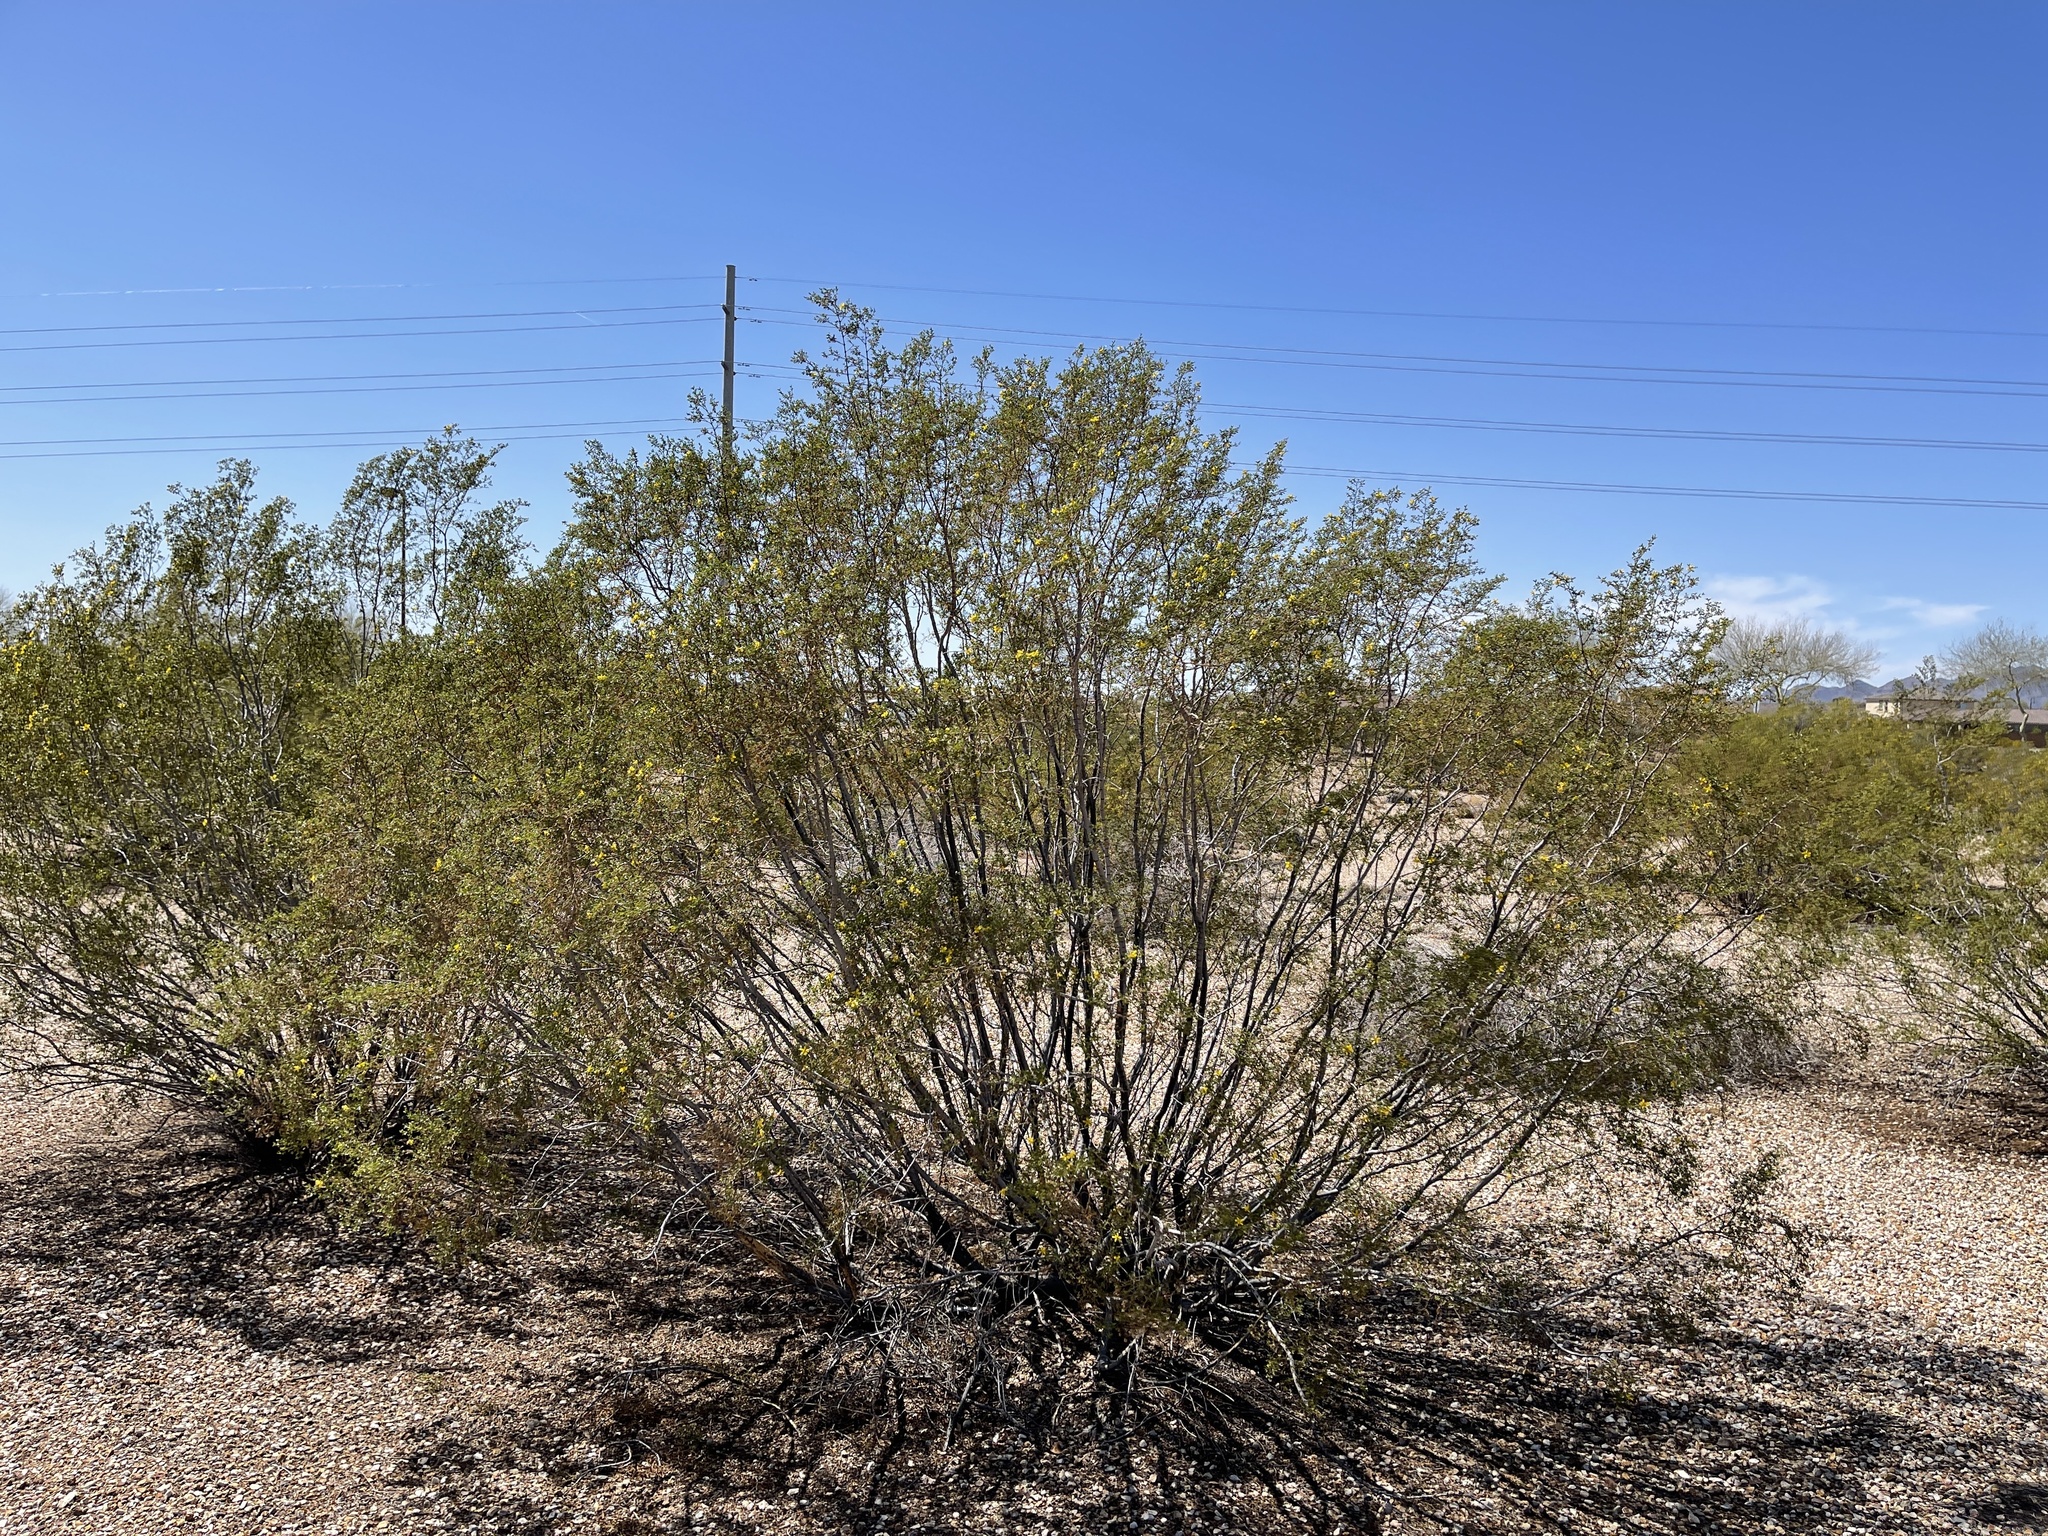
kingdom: Plantae
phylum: Tracheophyta
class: Magnoliopsida
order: Zygophyllales
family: Zygophyllaceae
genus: Larrea
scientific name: Larrea tridentata
